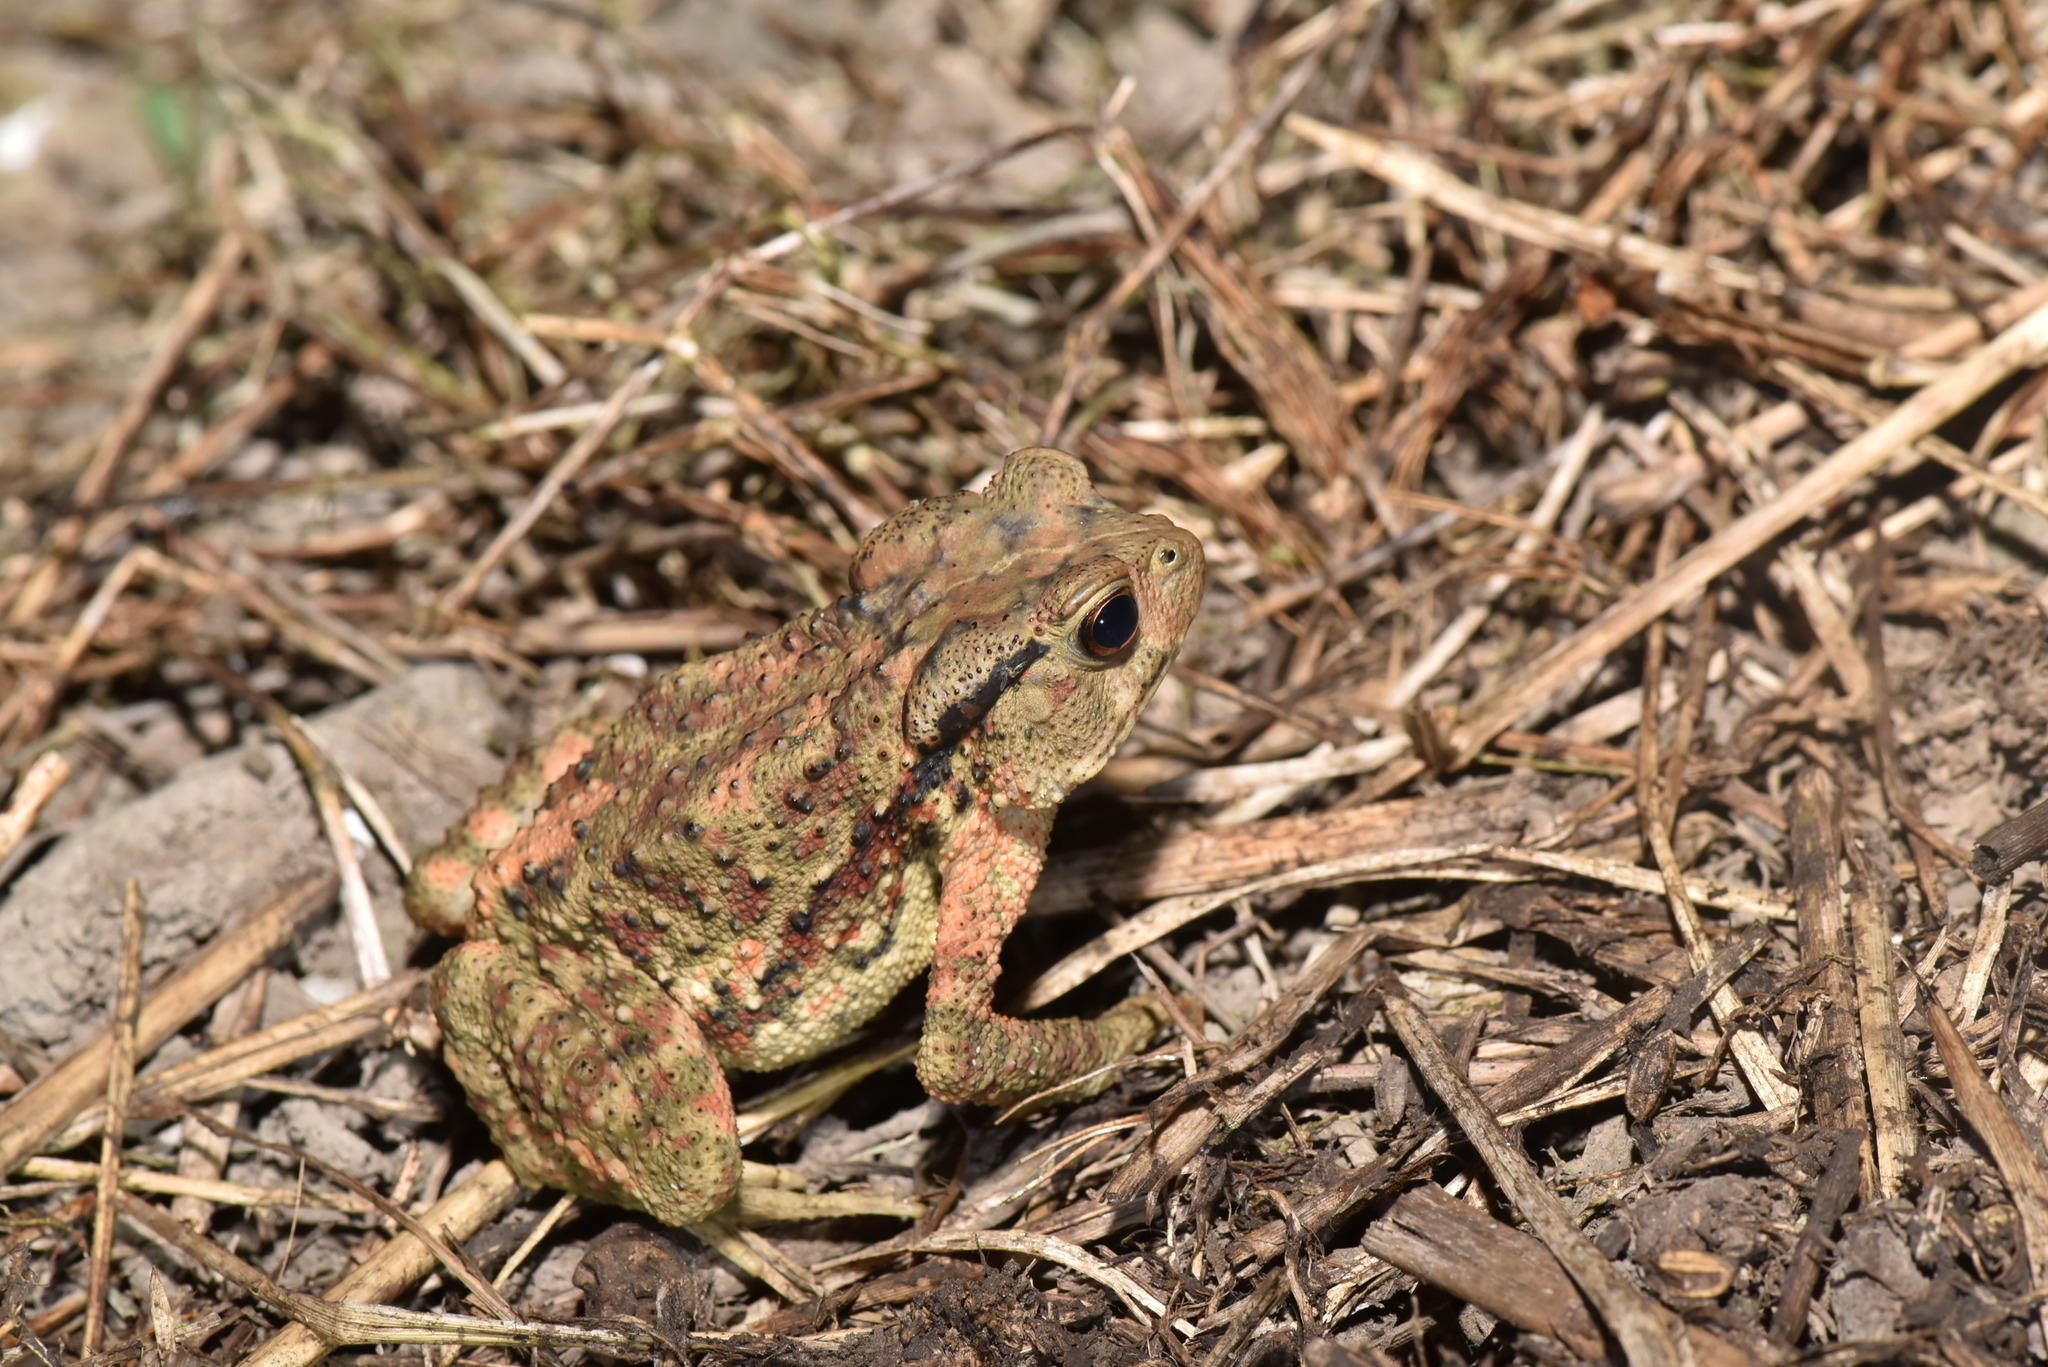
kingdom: Animalia
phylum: Chordata
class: Amphibia
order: Anura
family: Bufonidae
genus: Bufo
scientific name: Bufo bankorensis
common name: Bankor toad
